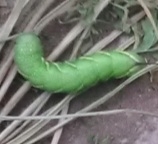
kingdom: Animalia
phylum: Arthropoda
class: Insecta
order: Lepidoptera
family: Sphingidae
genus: Manduca
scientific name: Manduca quinquemaculatus
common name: Five-spotted hawk-moth
